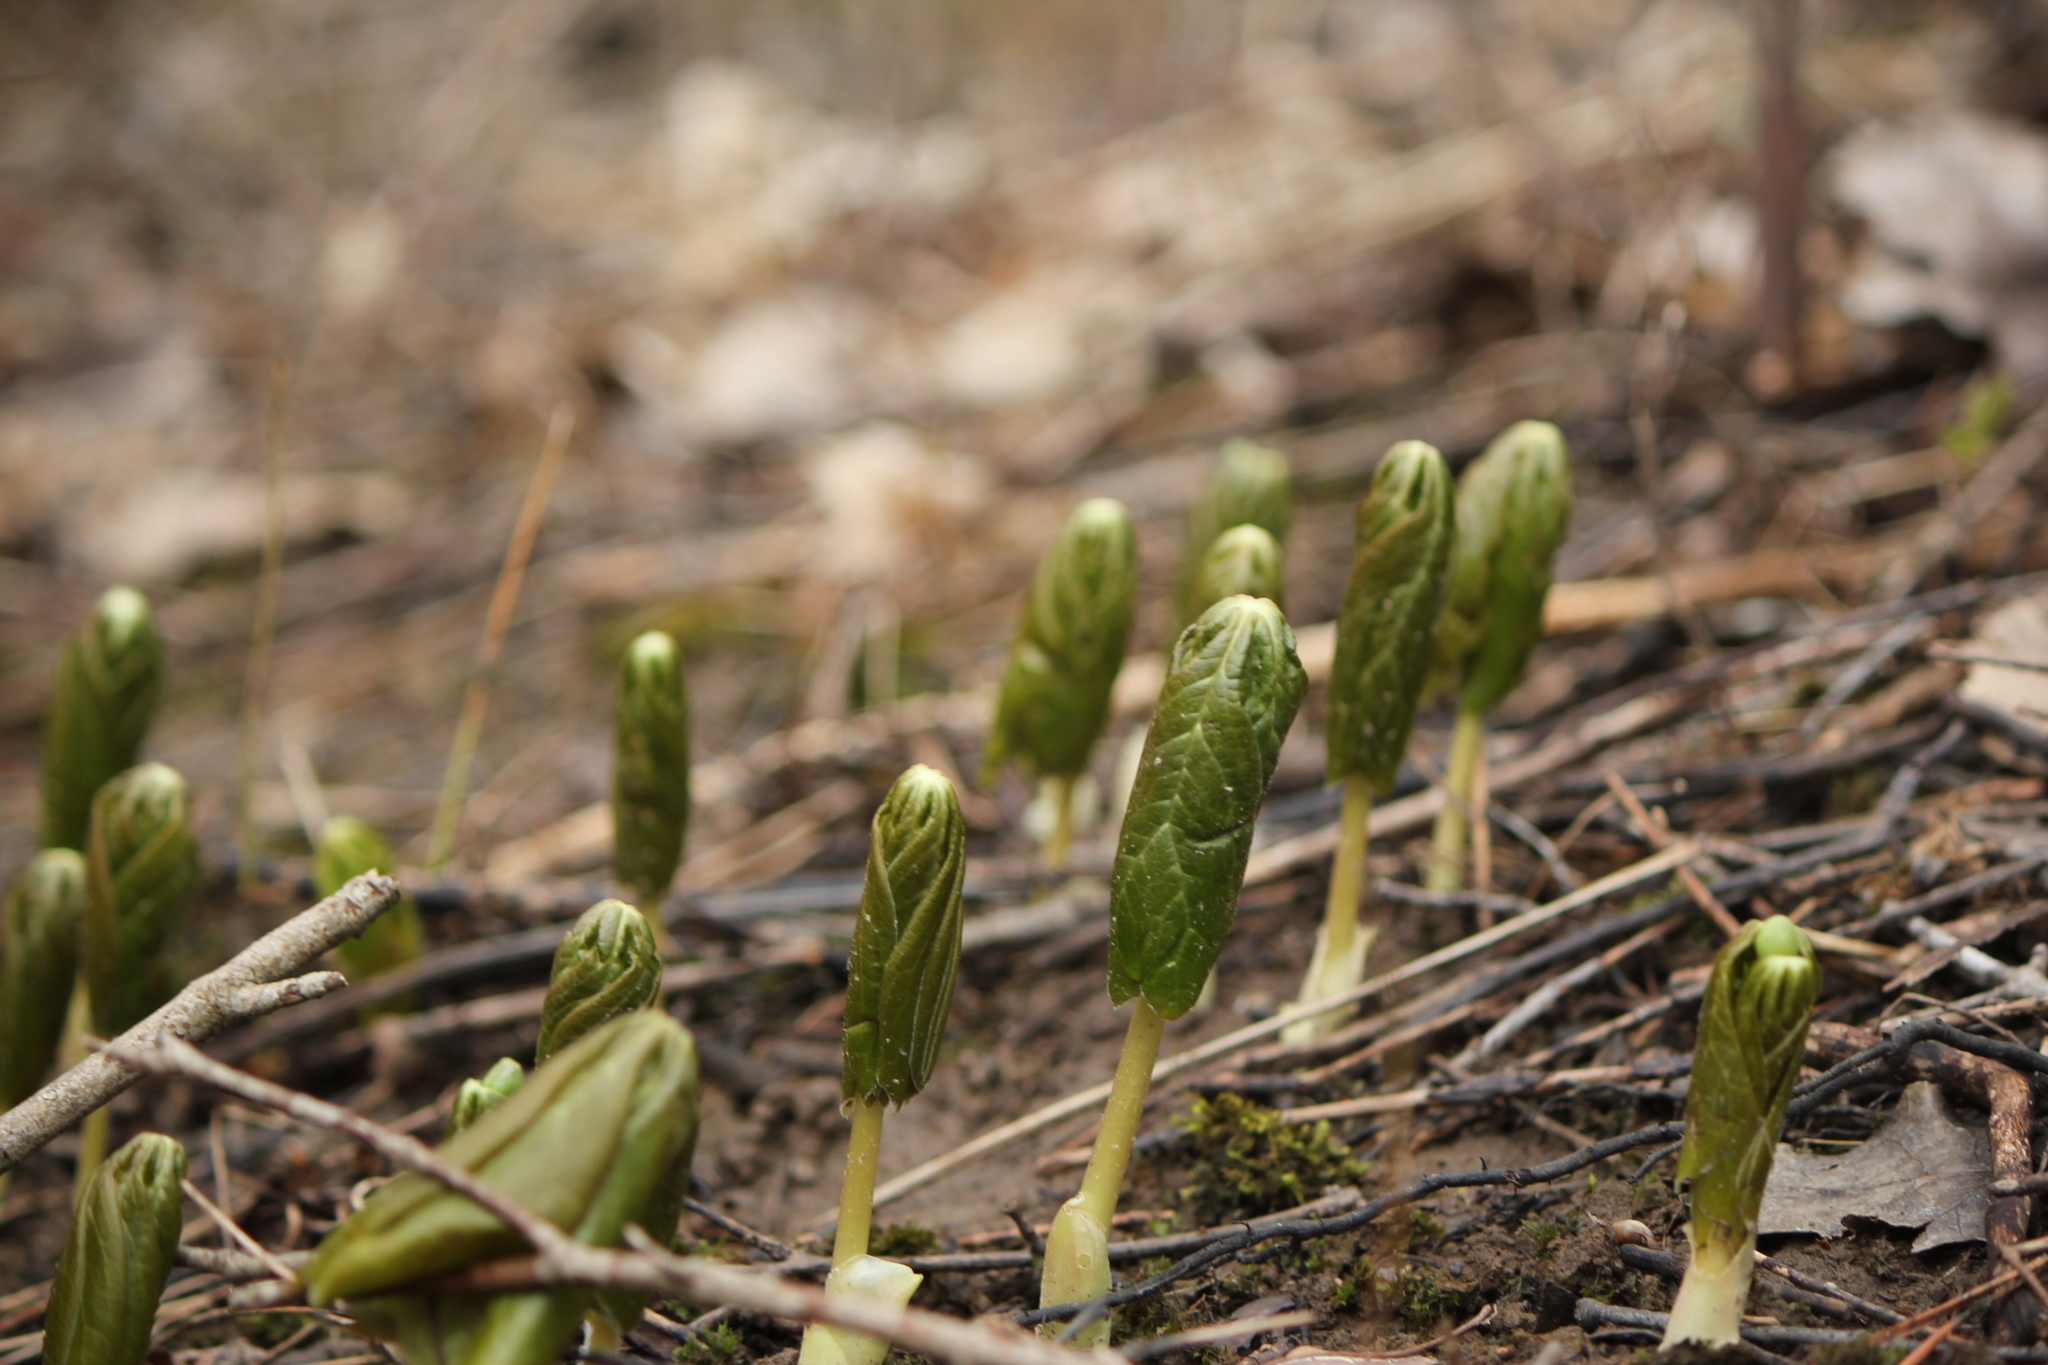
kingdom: Plantae
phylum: Tracheophyta
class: Magnoliopsida
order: Ranunculales
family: Berberidaceae
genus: Podophyllum
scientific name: Podophyllum peltatum
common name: Wild mandrake
